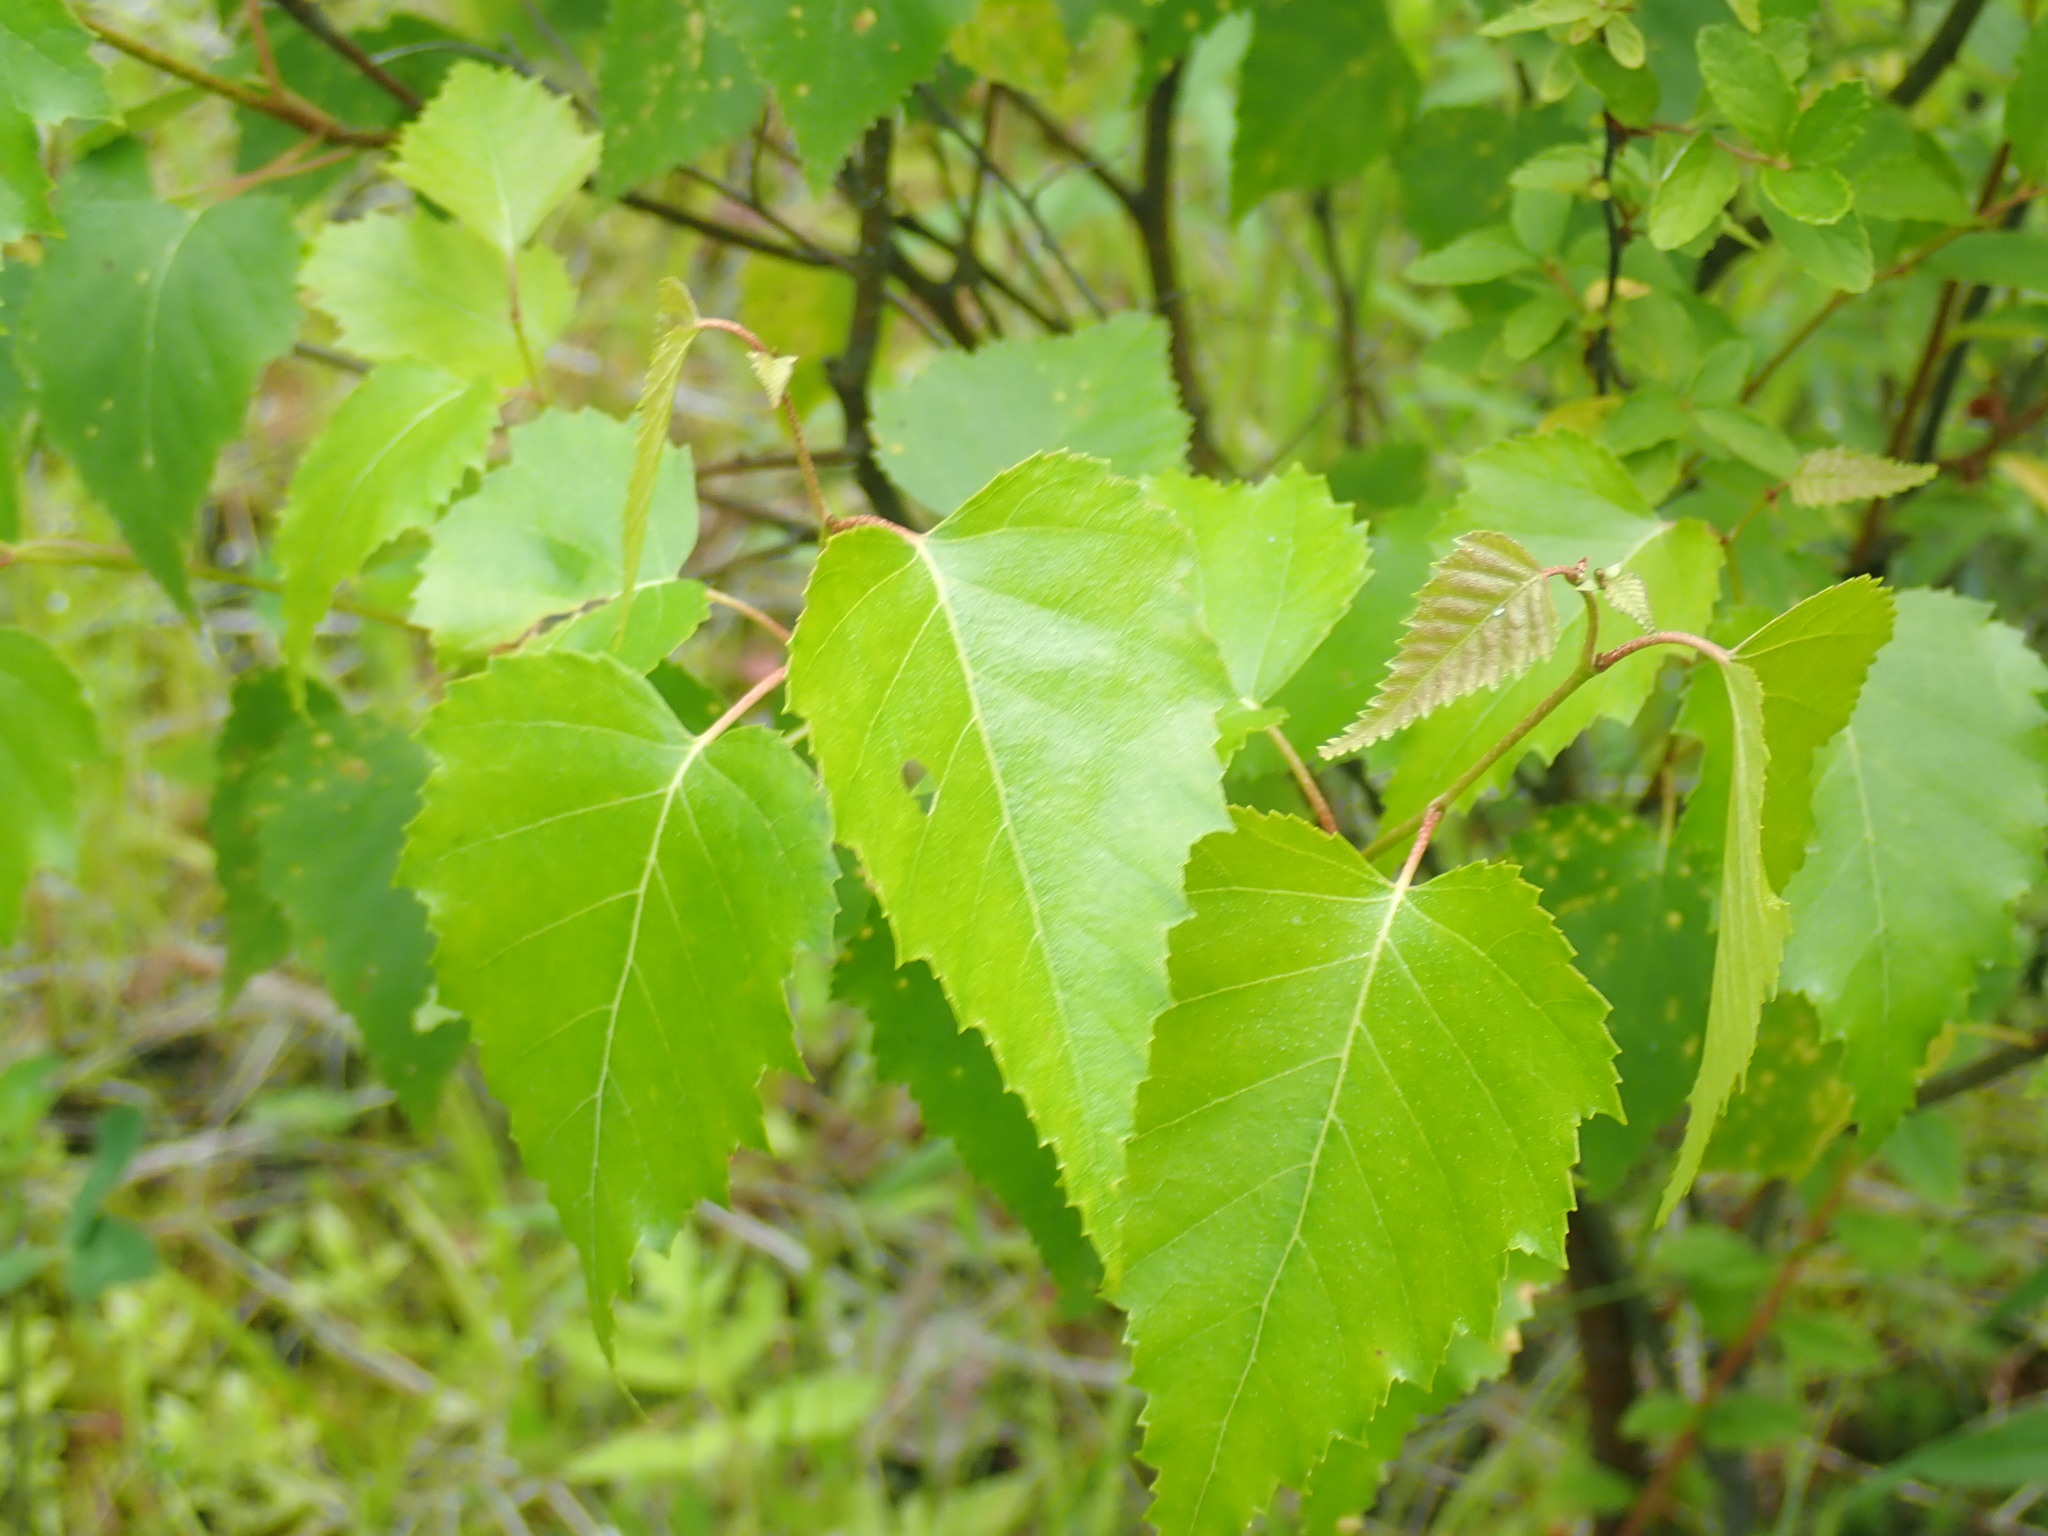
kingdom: Plantae
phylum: Tracheophyta
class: Magnoliopsida
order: Fagales
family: Betulaceae
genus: Betula
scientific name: Betula populifolia
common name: Fire birch
